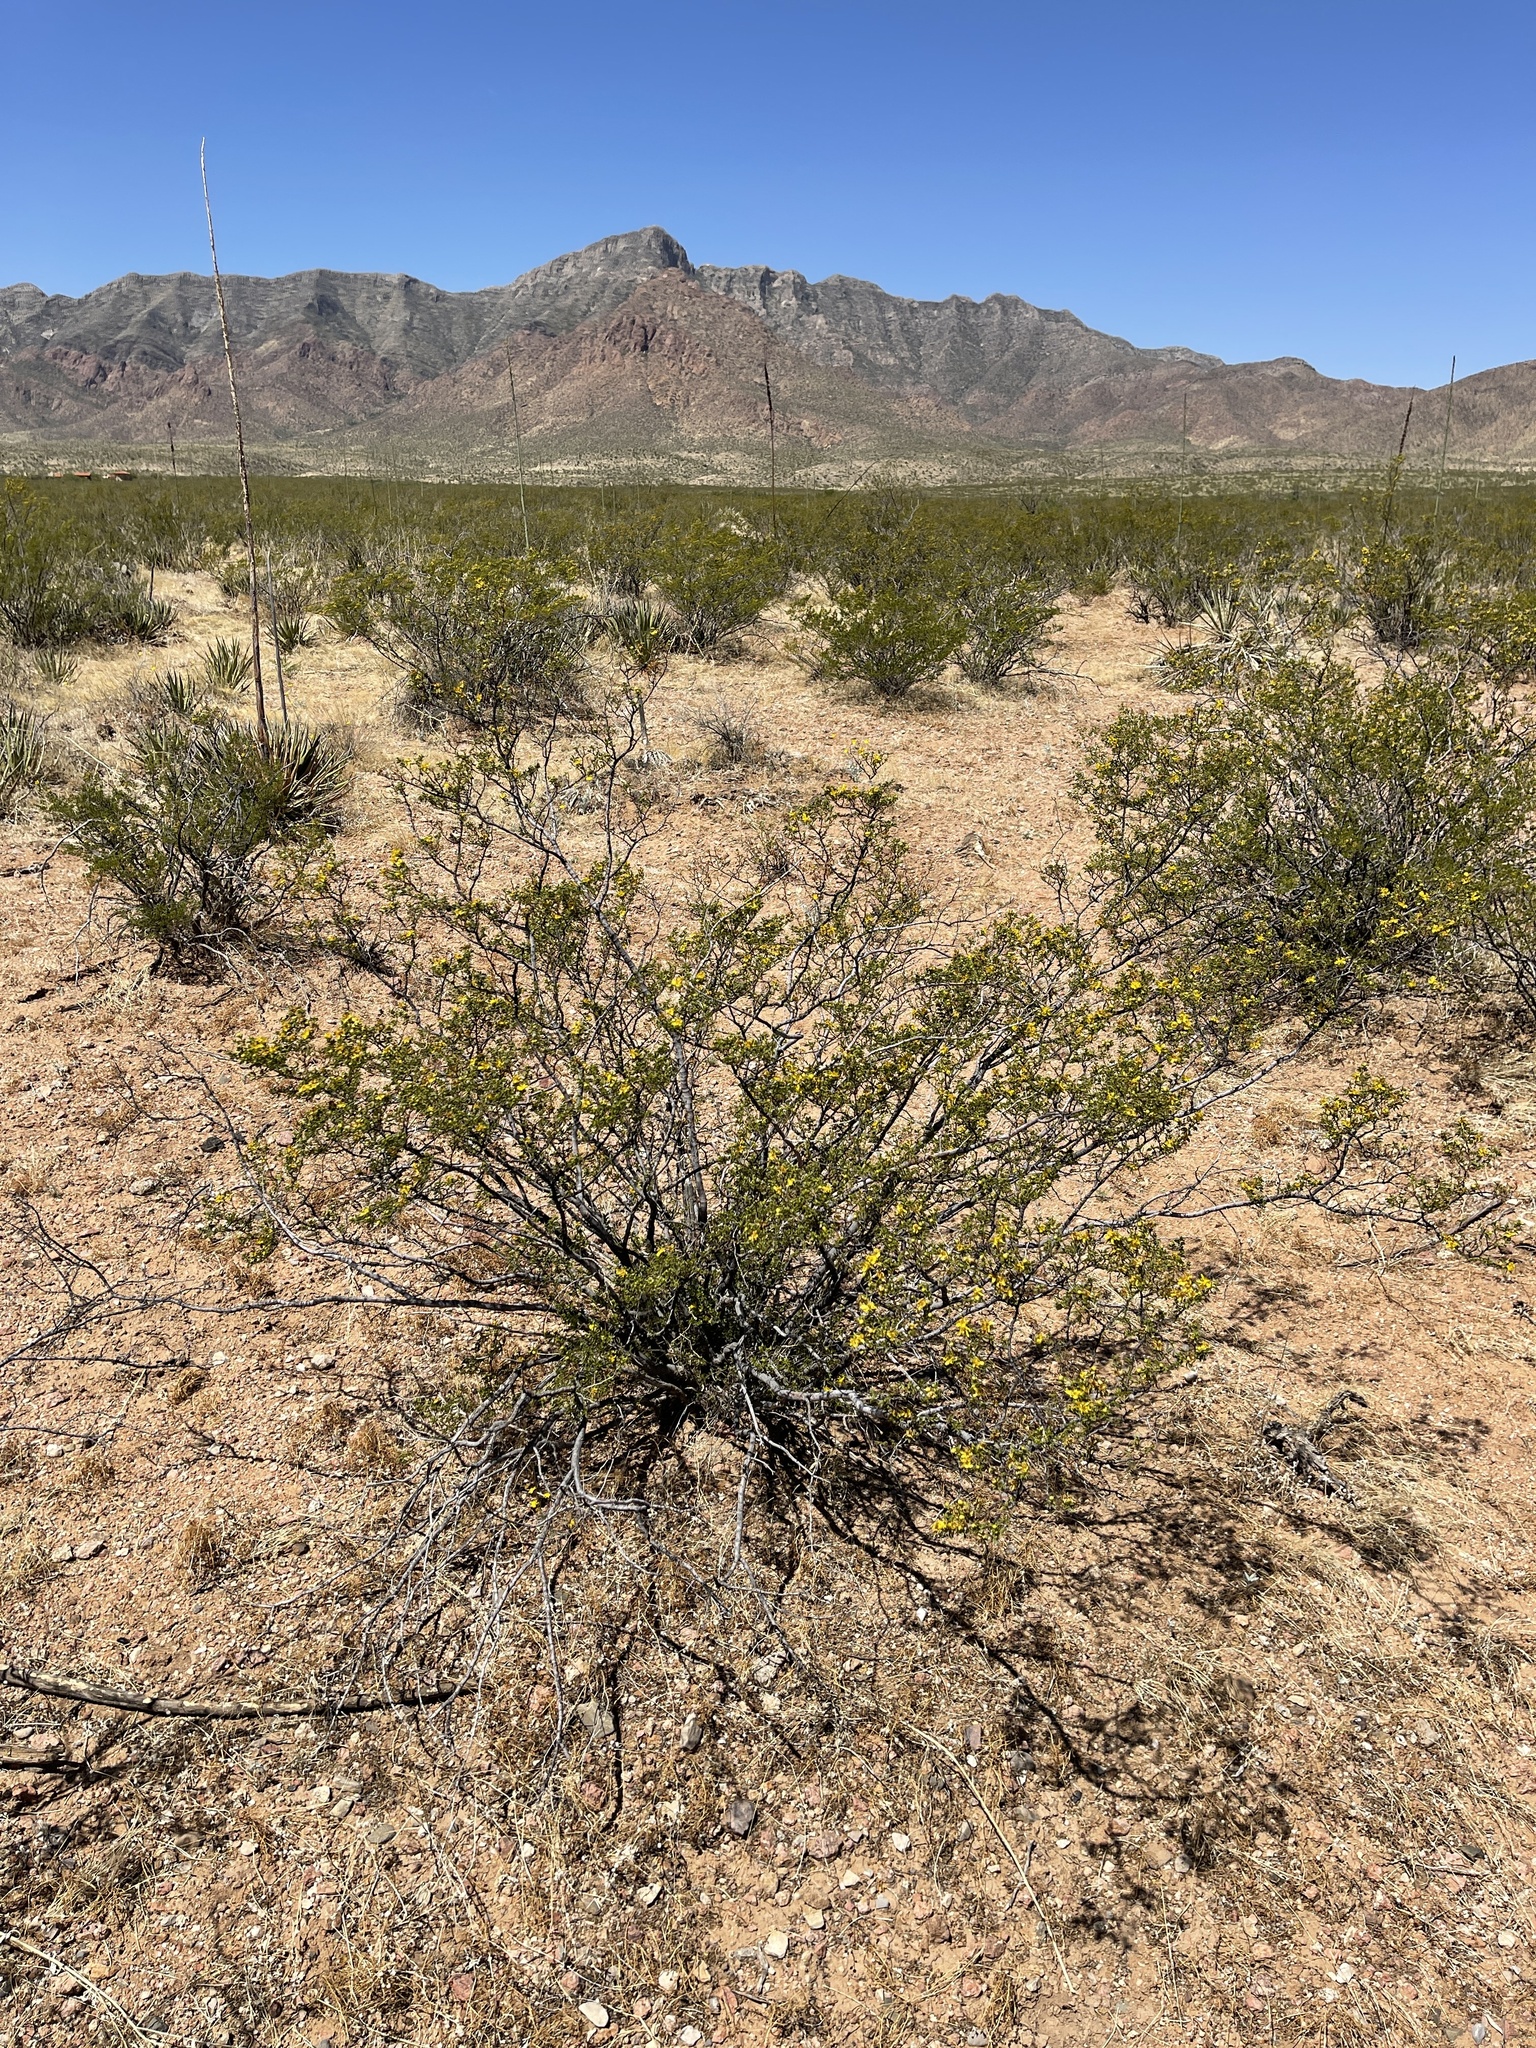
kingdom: Plantae
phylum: Tracheophyta
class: Magnoliopsida
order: Zygophyllales
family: Zygophyllaceae
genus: Larrea
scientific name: Larrea tridentata
